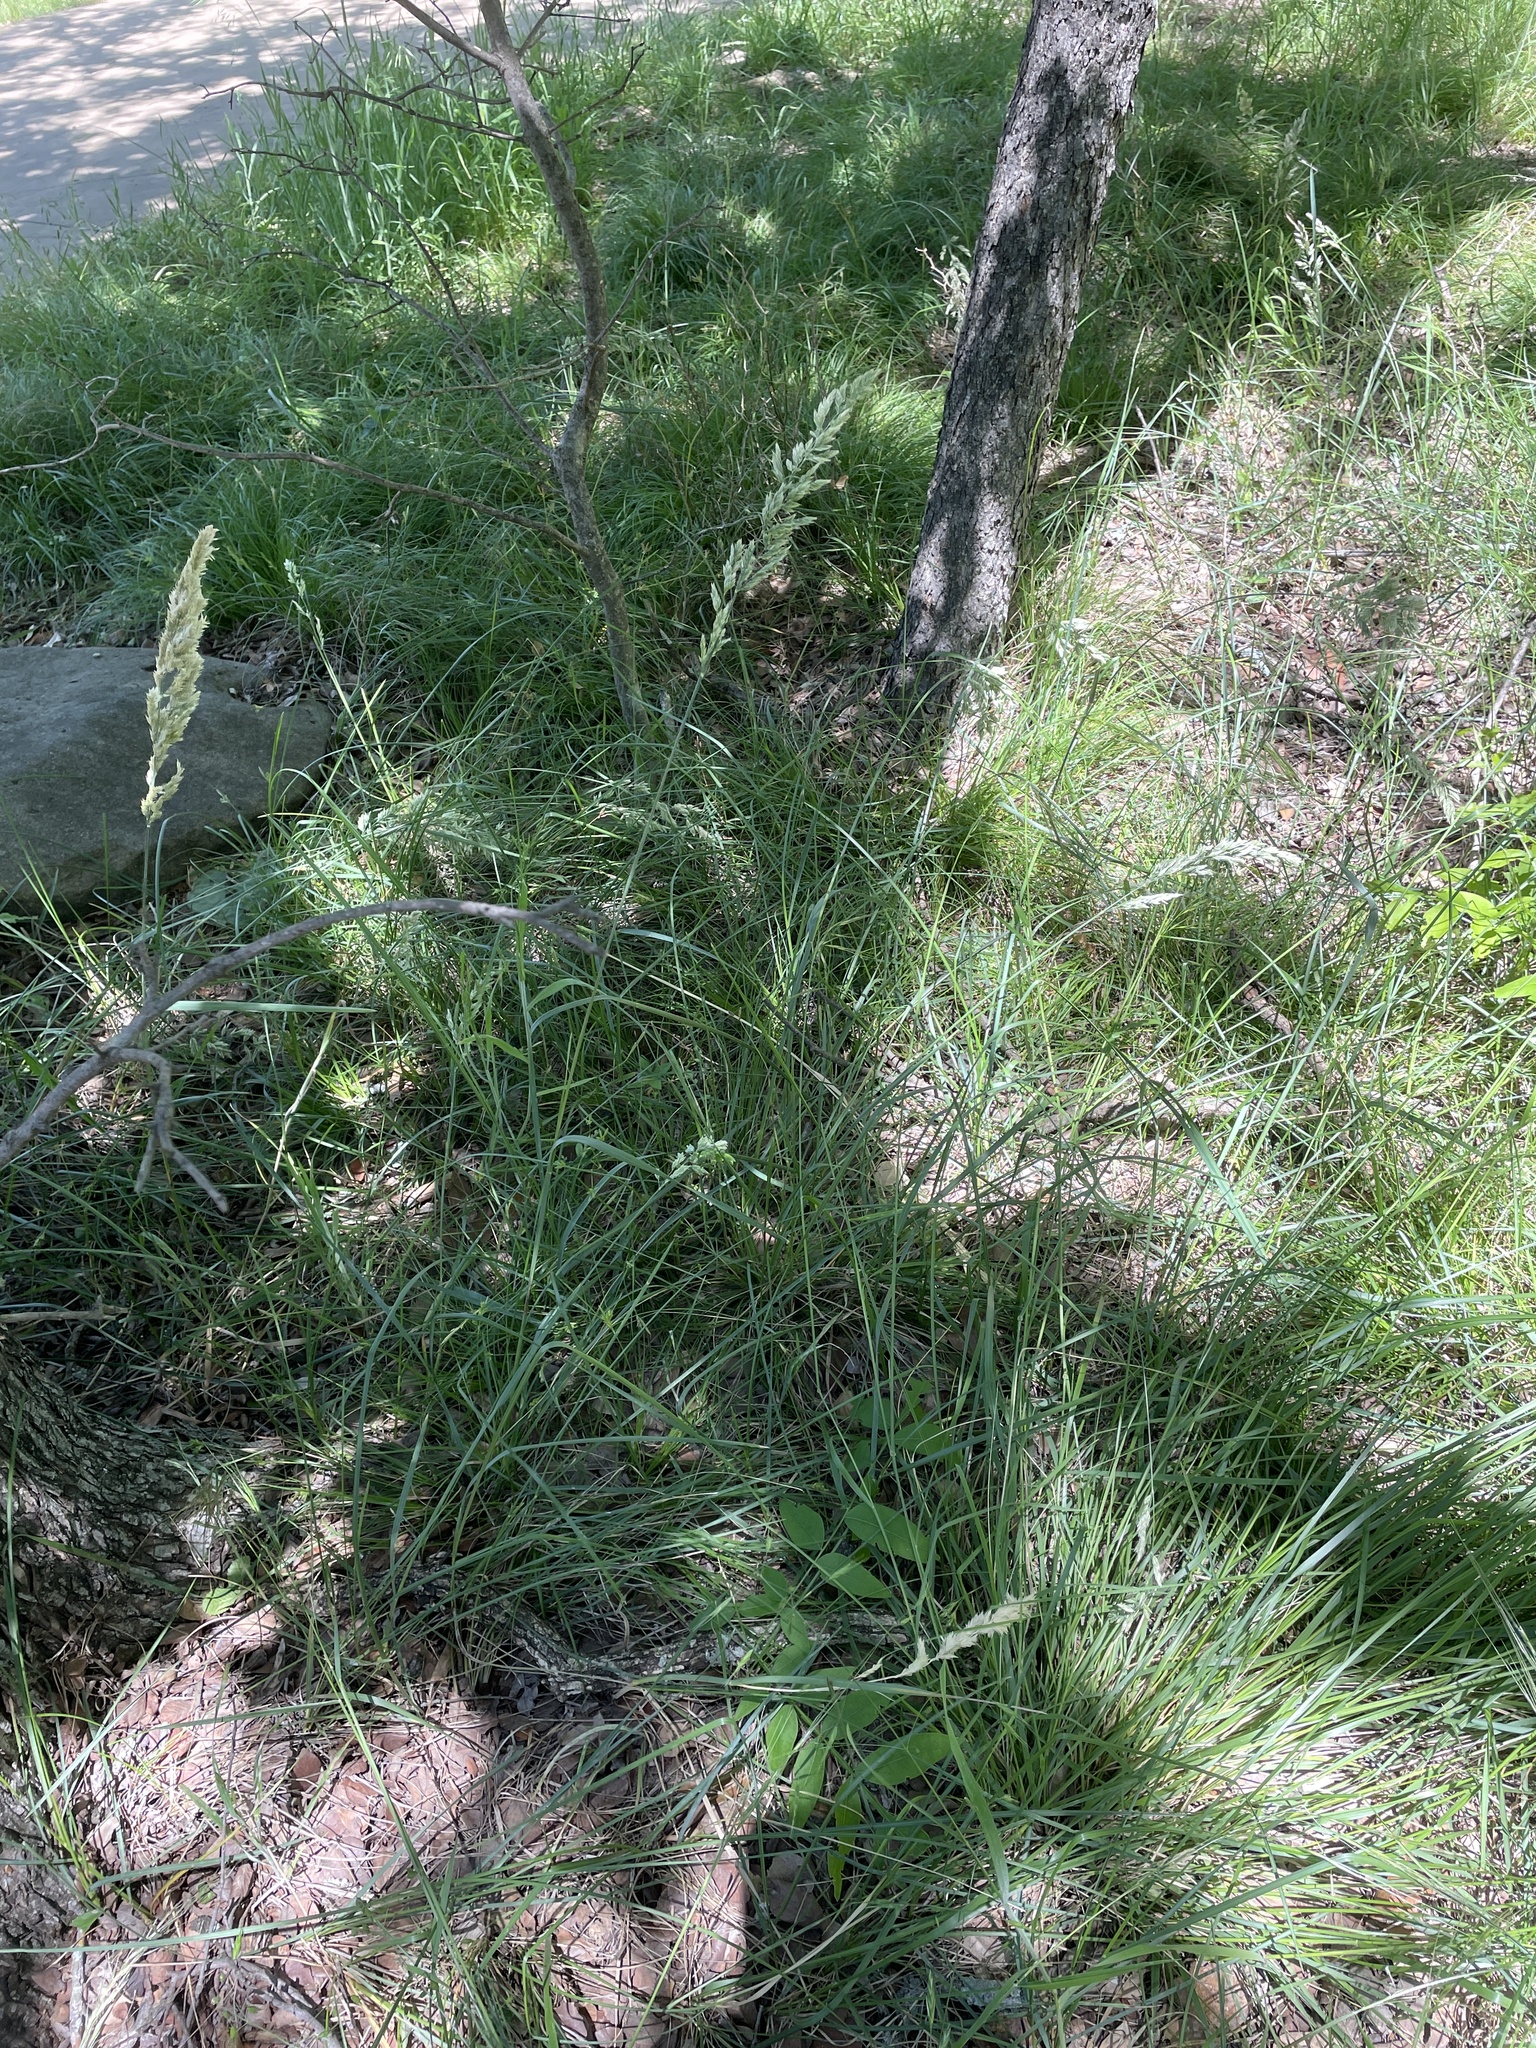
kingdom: Plantae
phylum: Tracheophyta
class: Liliopsida
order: Poales
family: Poaceae
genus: Poa
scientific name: Poa arachnifera
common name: Texas bluegrass
